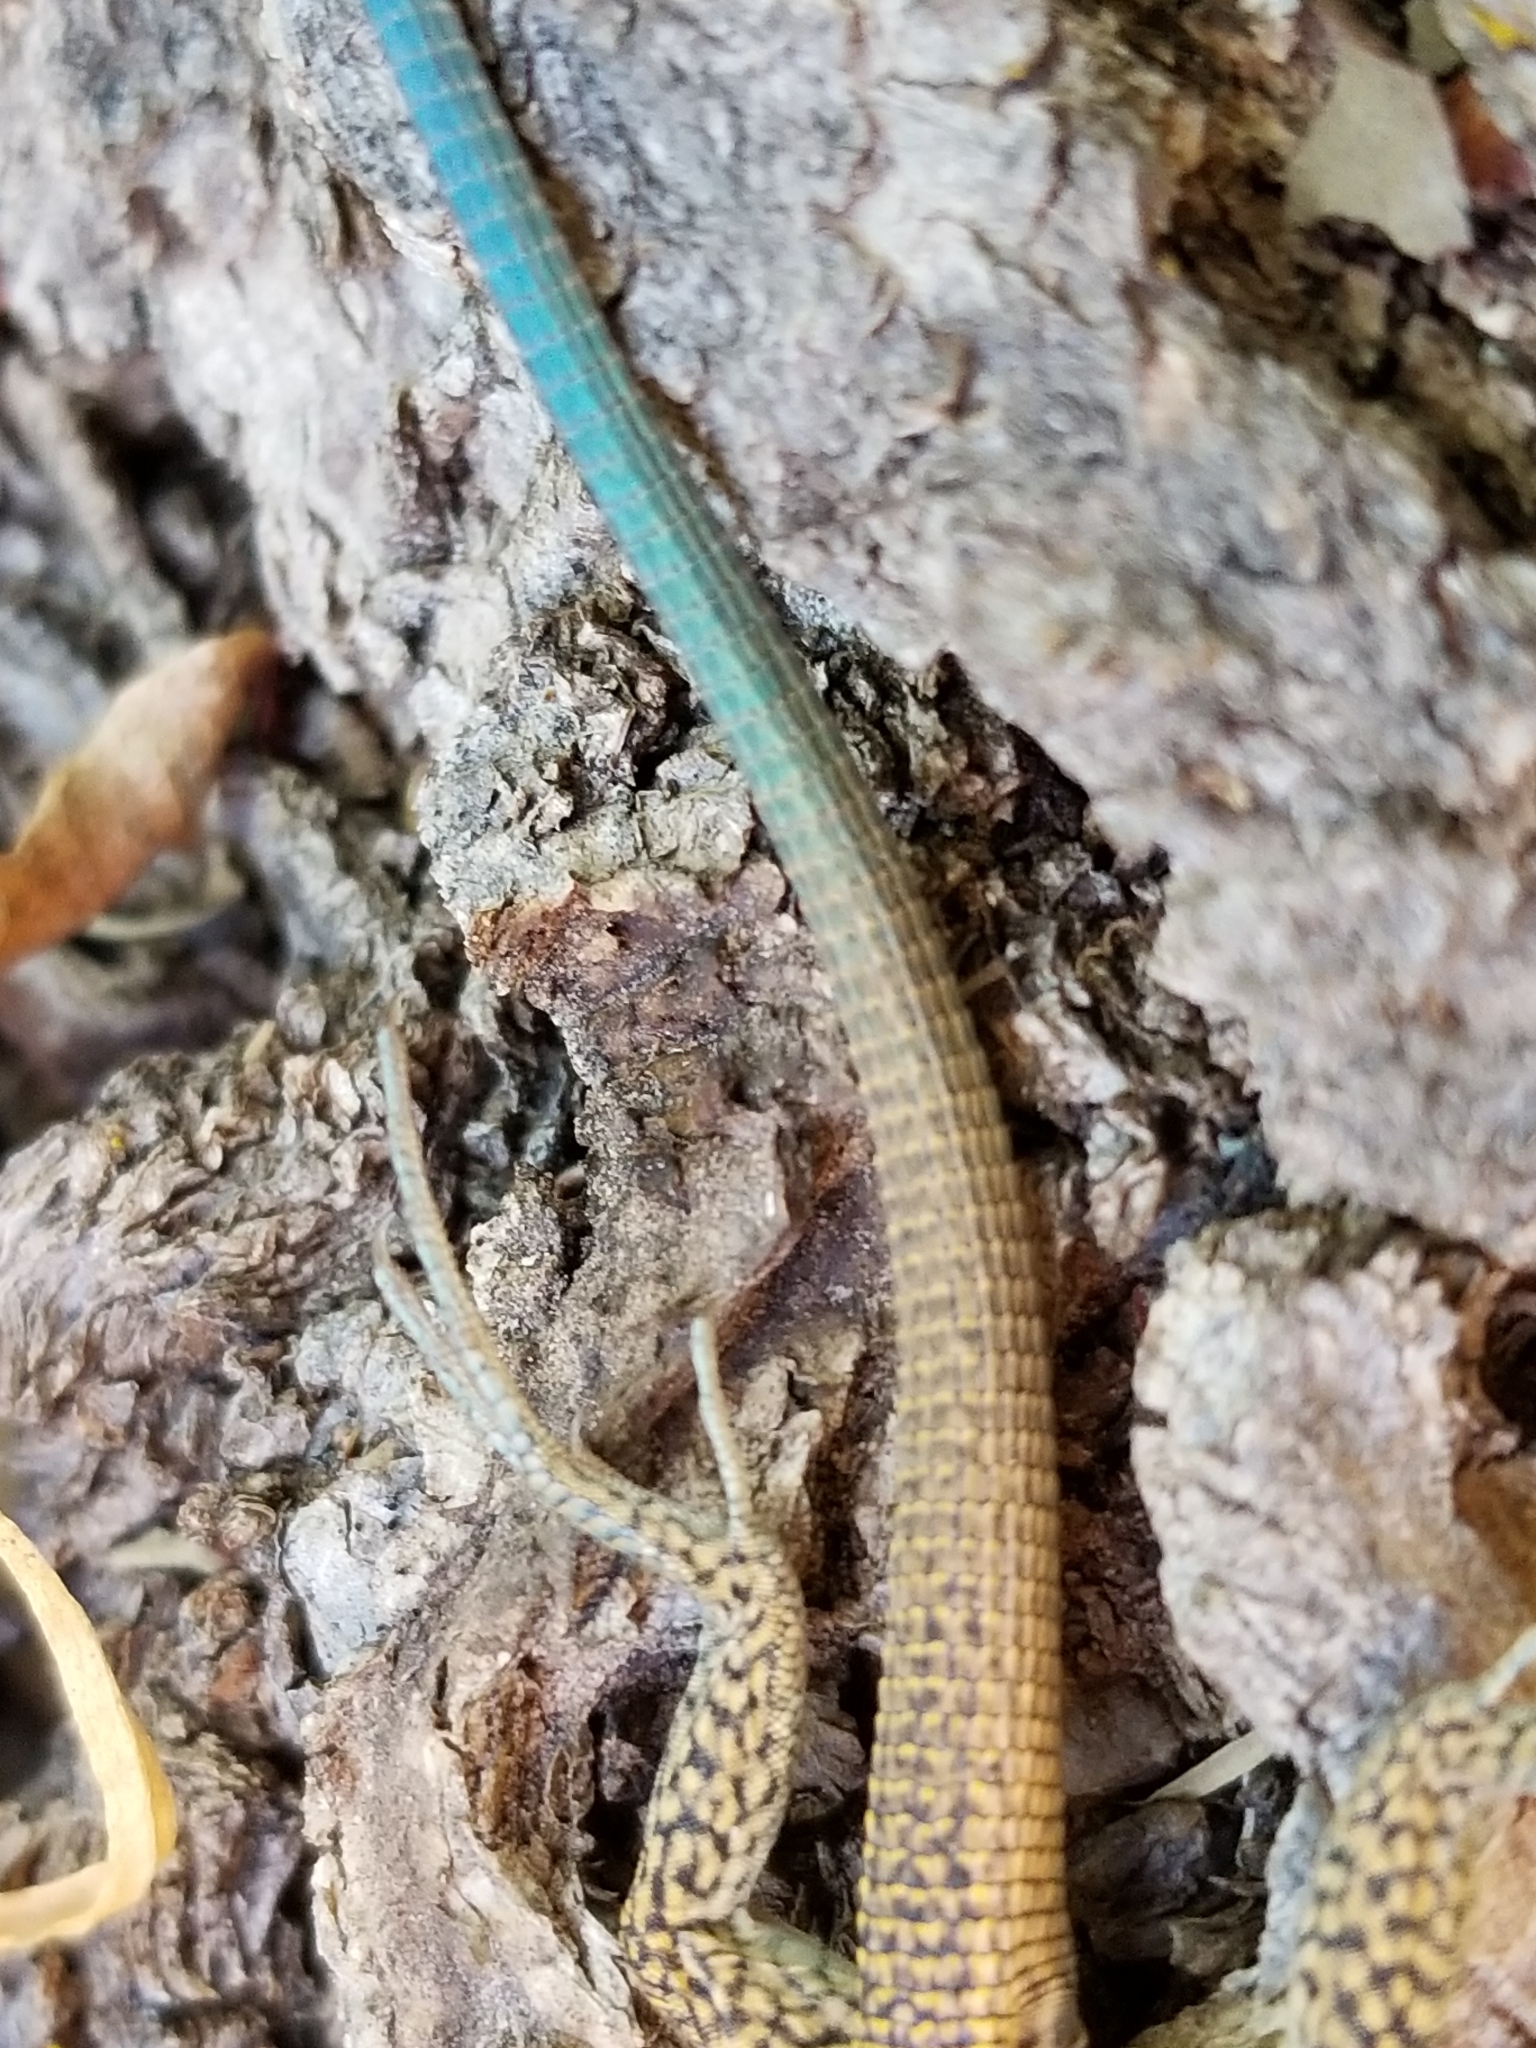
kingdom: Animalia
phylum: Chordata
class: Squamata
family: Teiidae
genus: Aspidoscelis
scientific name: Aspidoscelis tigris
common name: Tiger whiptail
